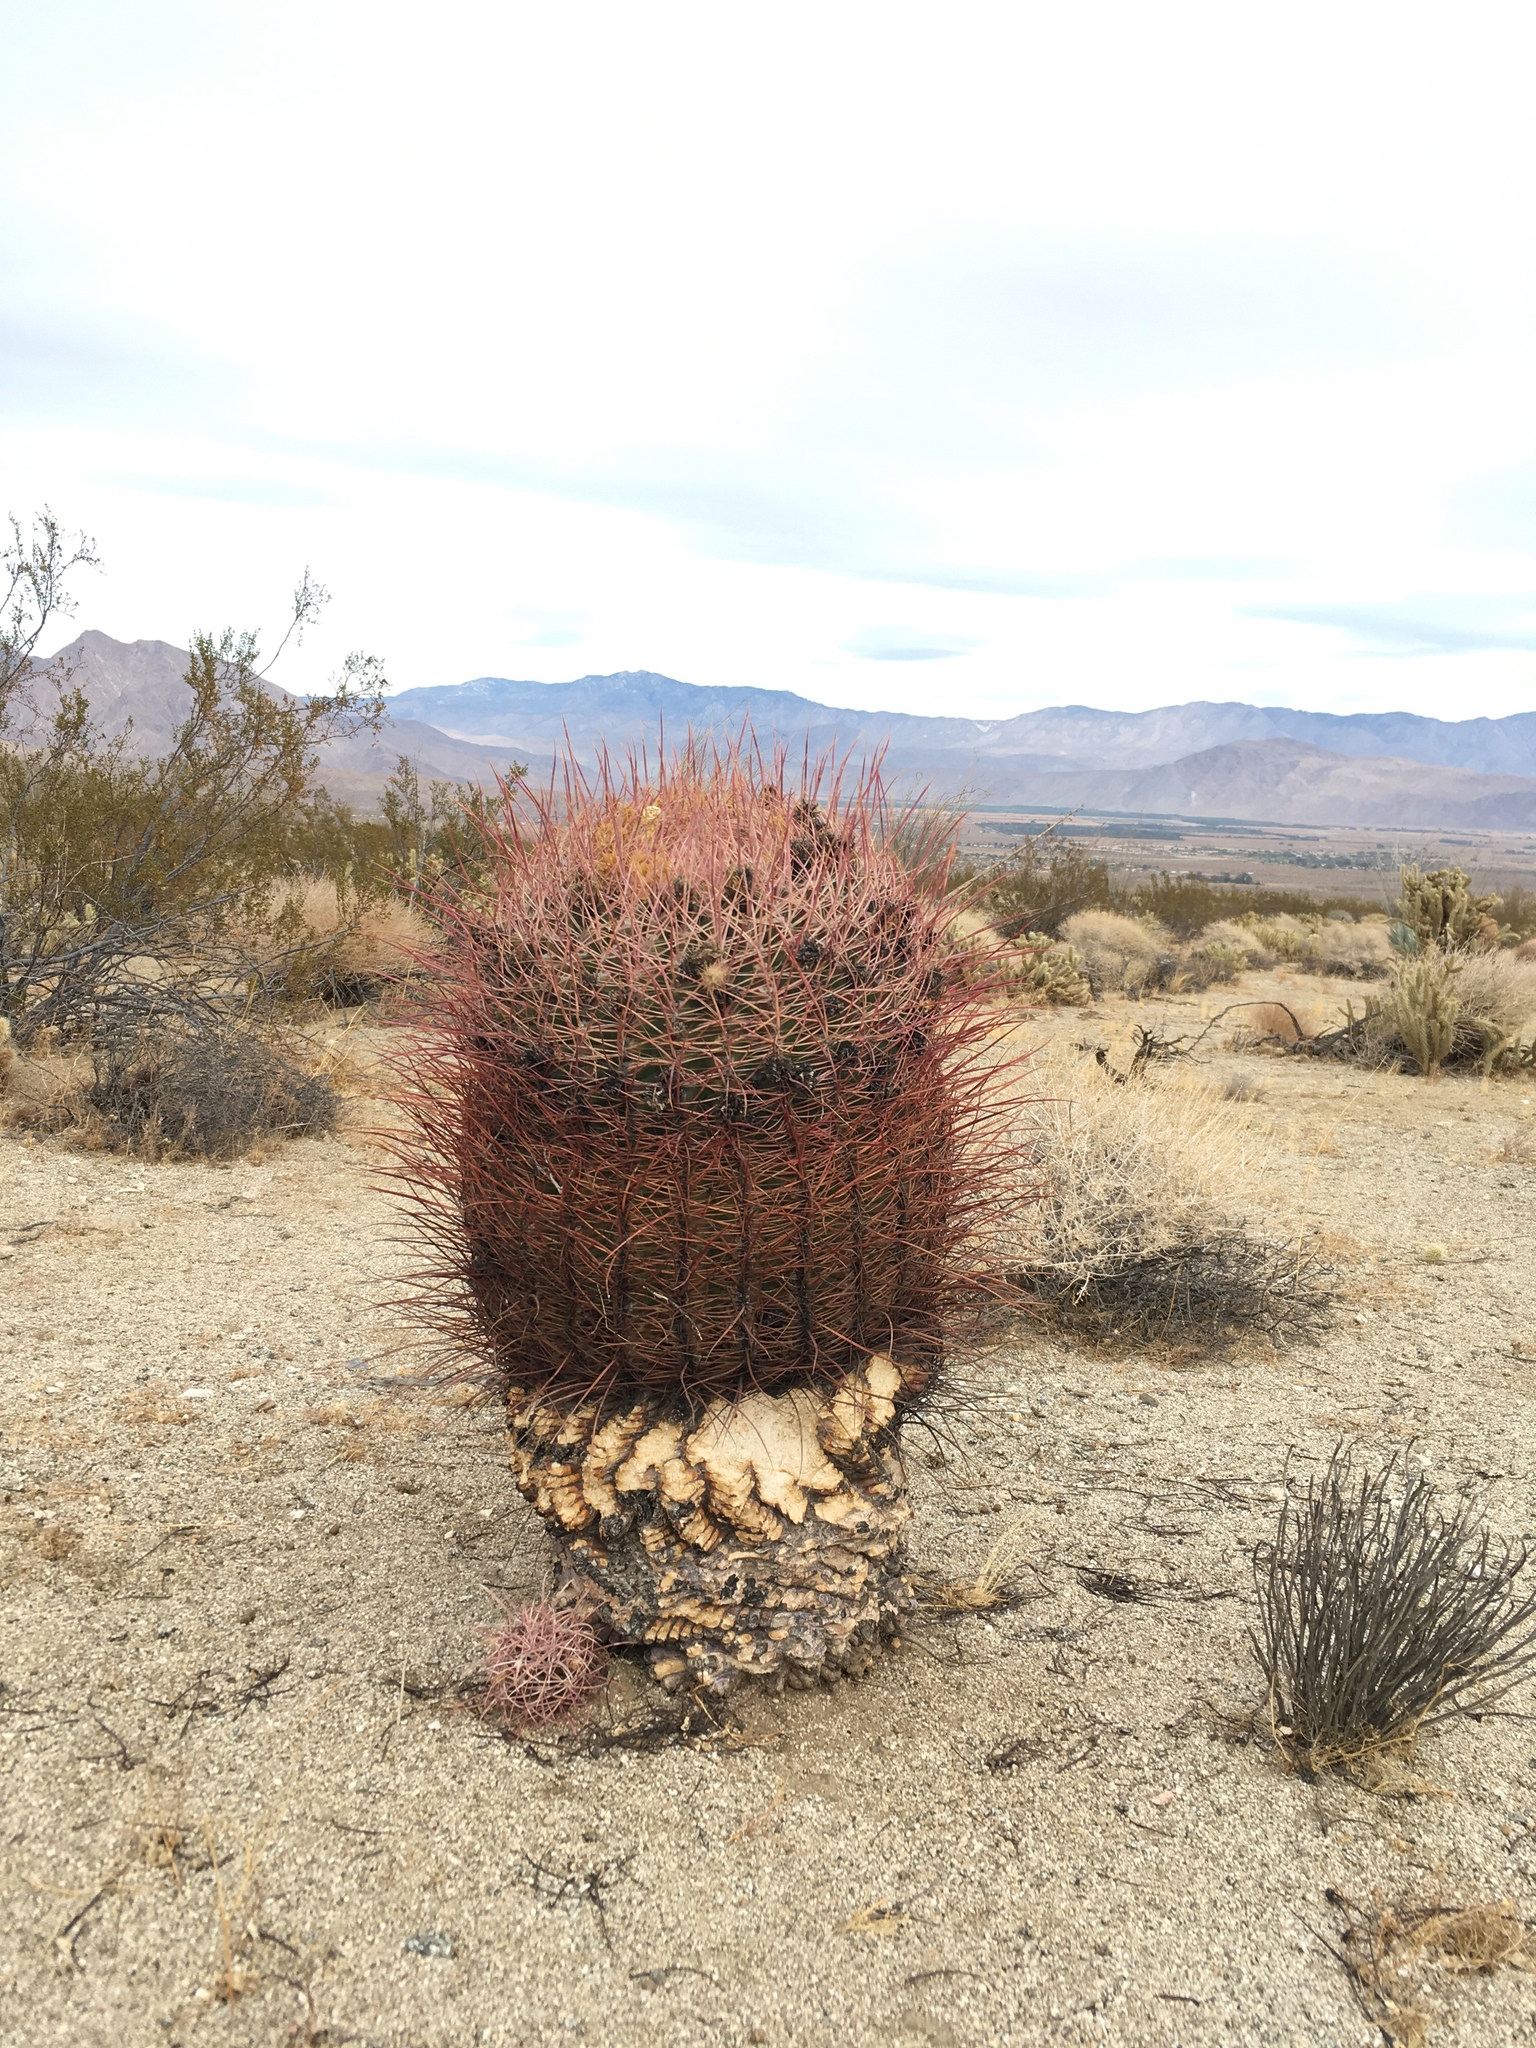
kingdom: Plantae
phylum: Tracheophyta
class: Magnoliopsida
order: Caryophyllales
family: Cactaceae
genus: Ferocactus
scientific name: Ferocactus cylindraceus
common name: California barrel cactus
